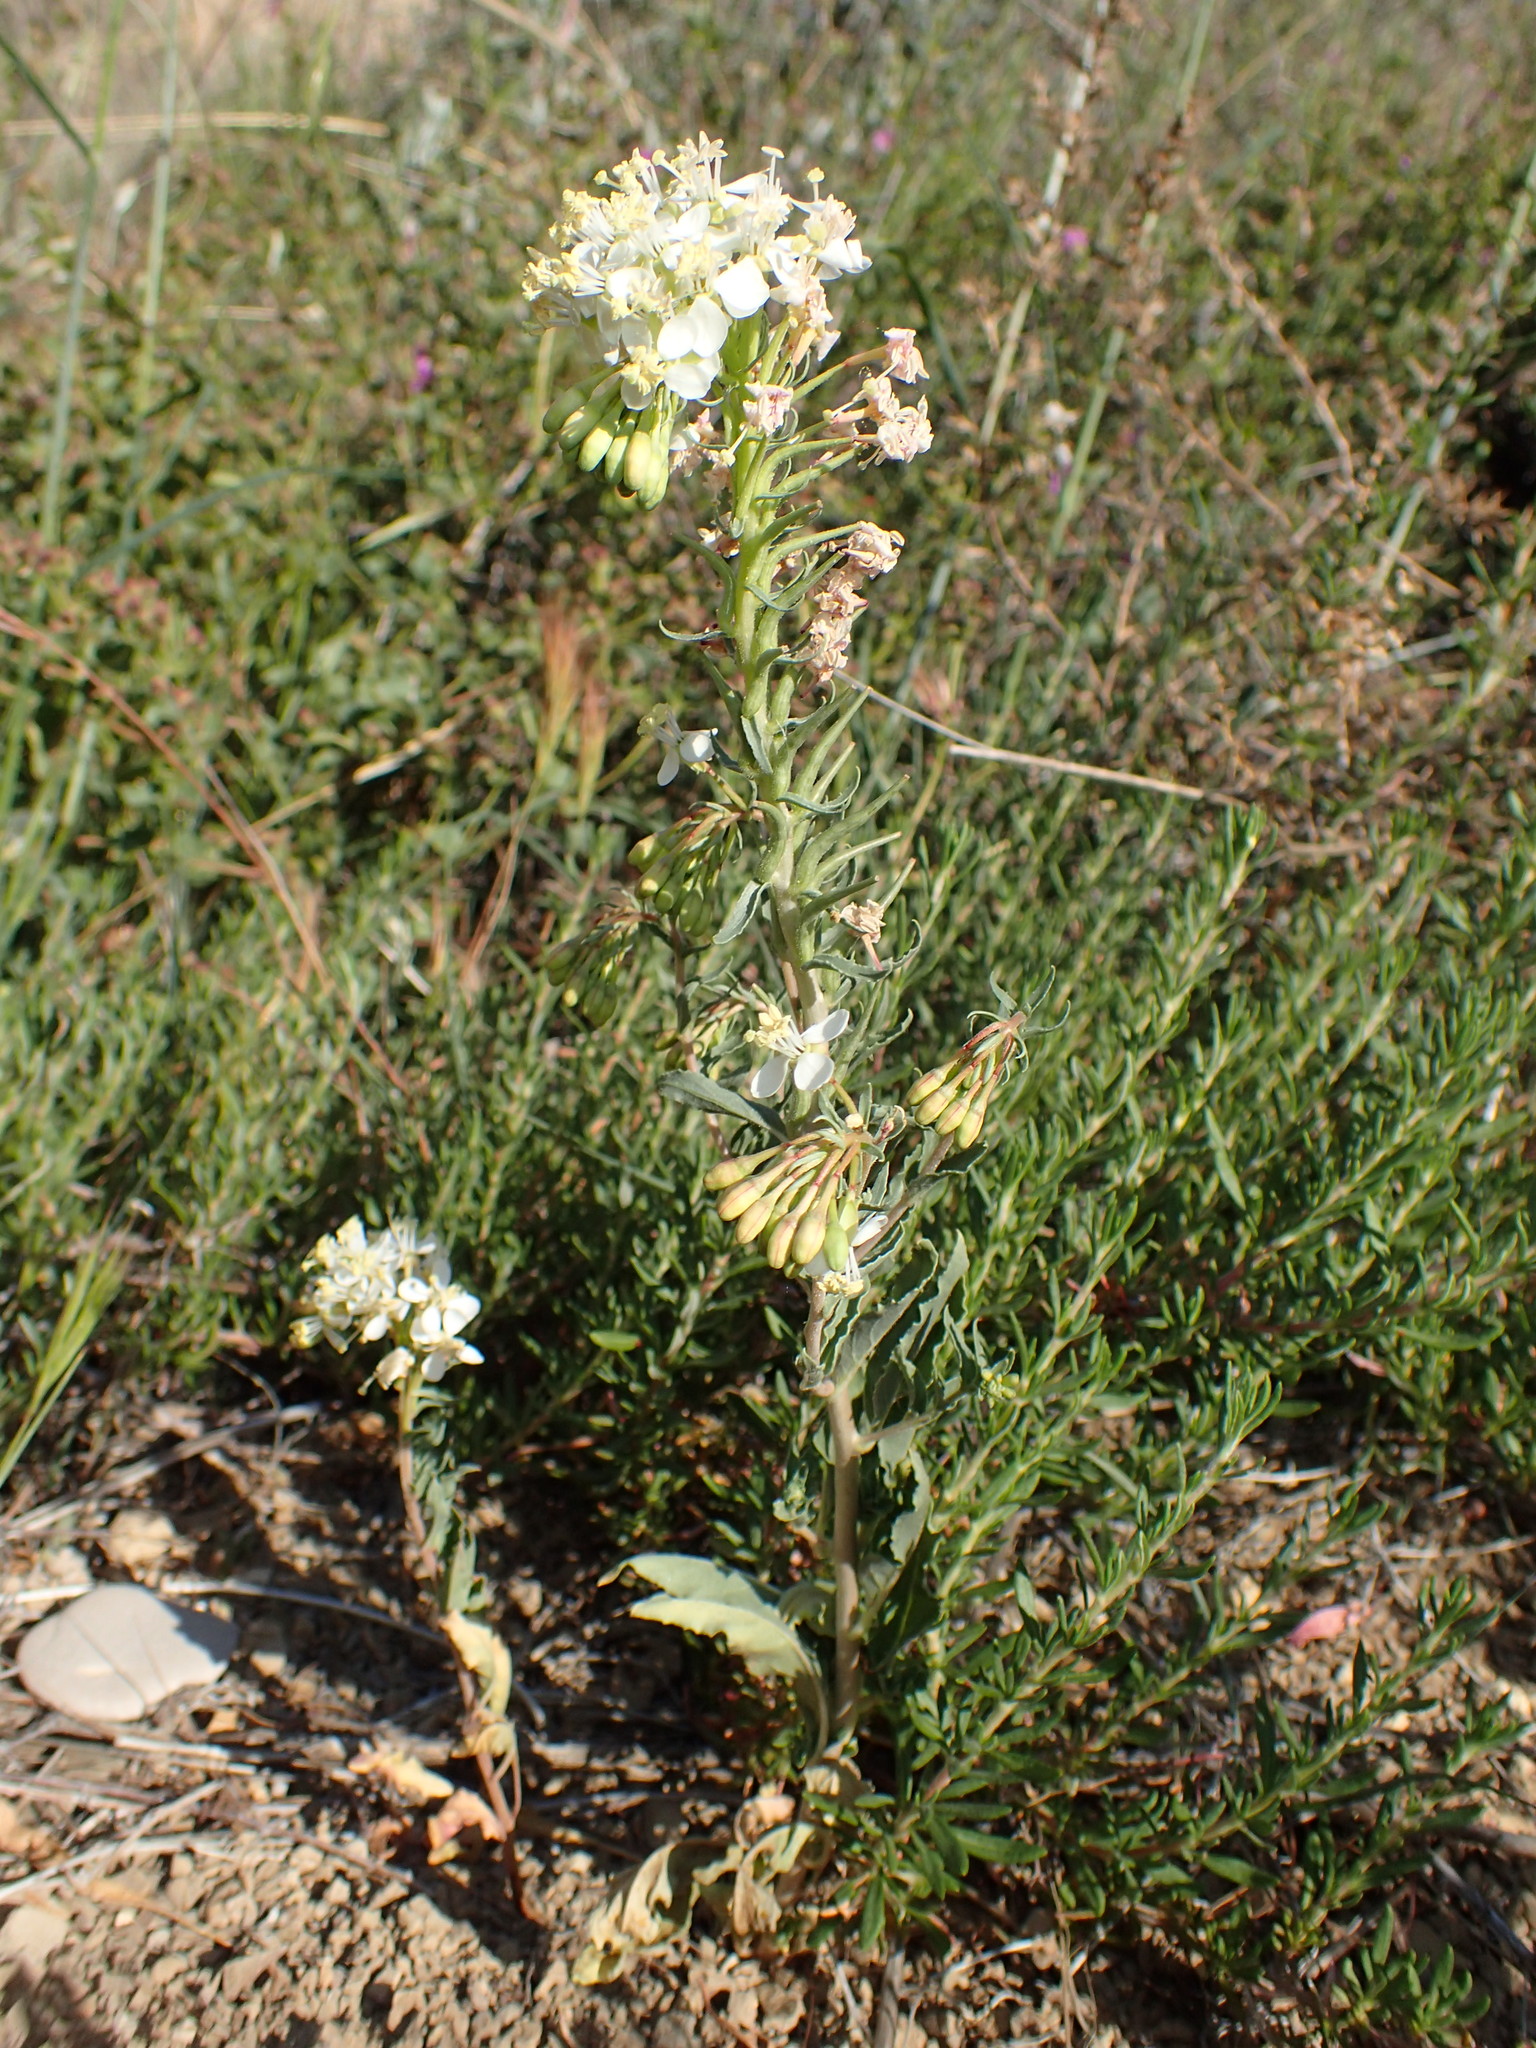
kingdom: Plantae
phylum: Tracheophyta
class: Magnoliopsida
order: Myrtales
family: Onagraceae
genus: Eremothera
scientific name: Eremothera boothii
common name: Booth's evening primrose
